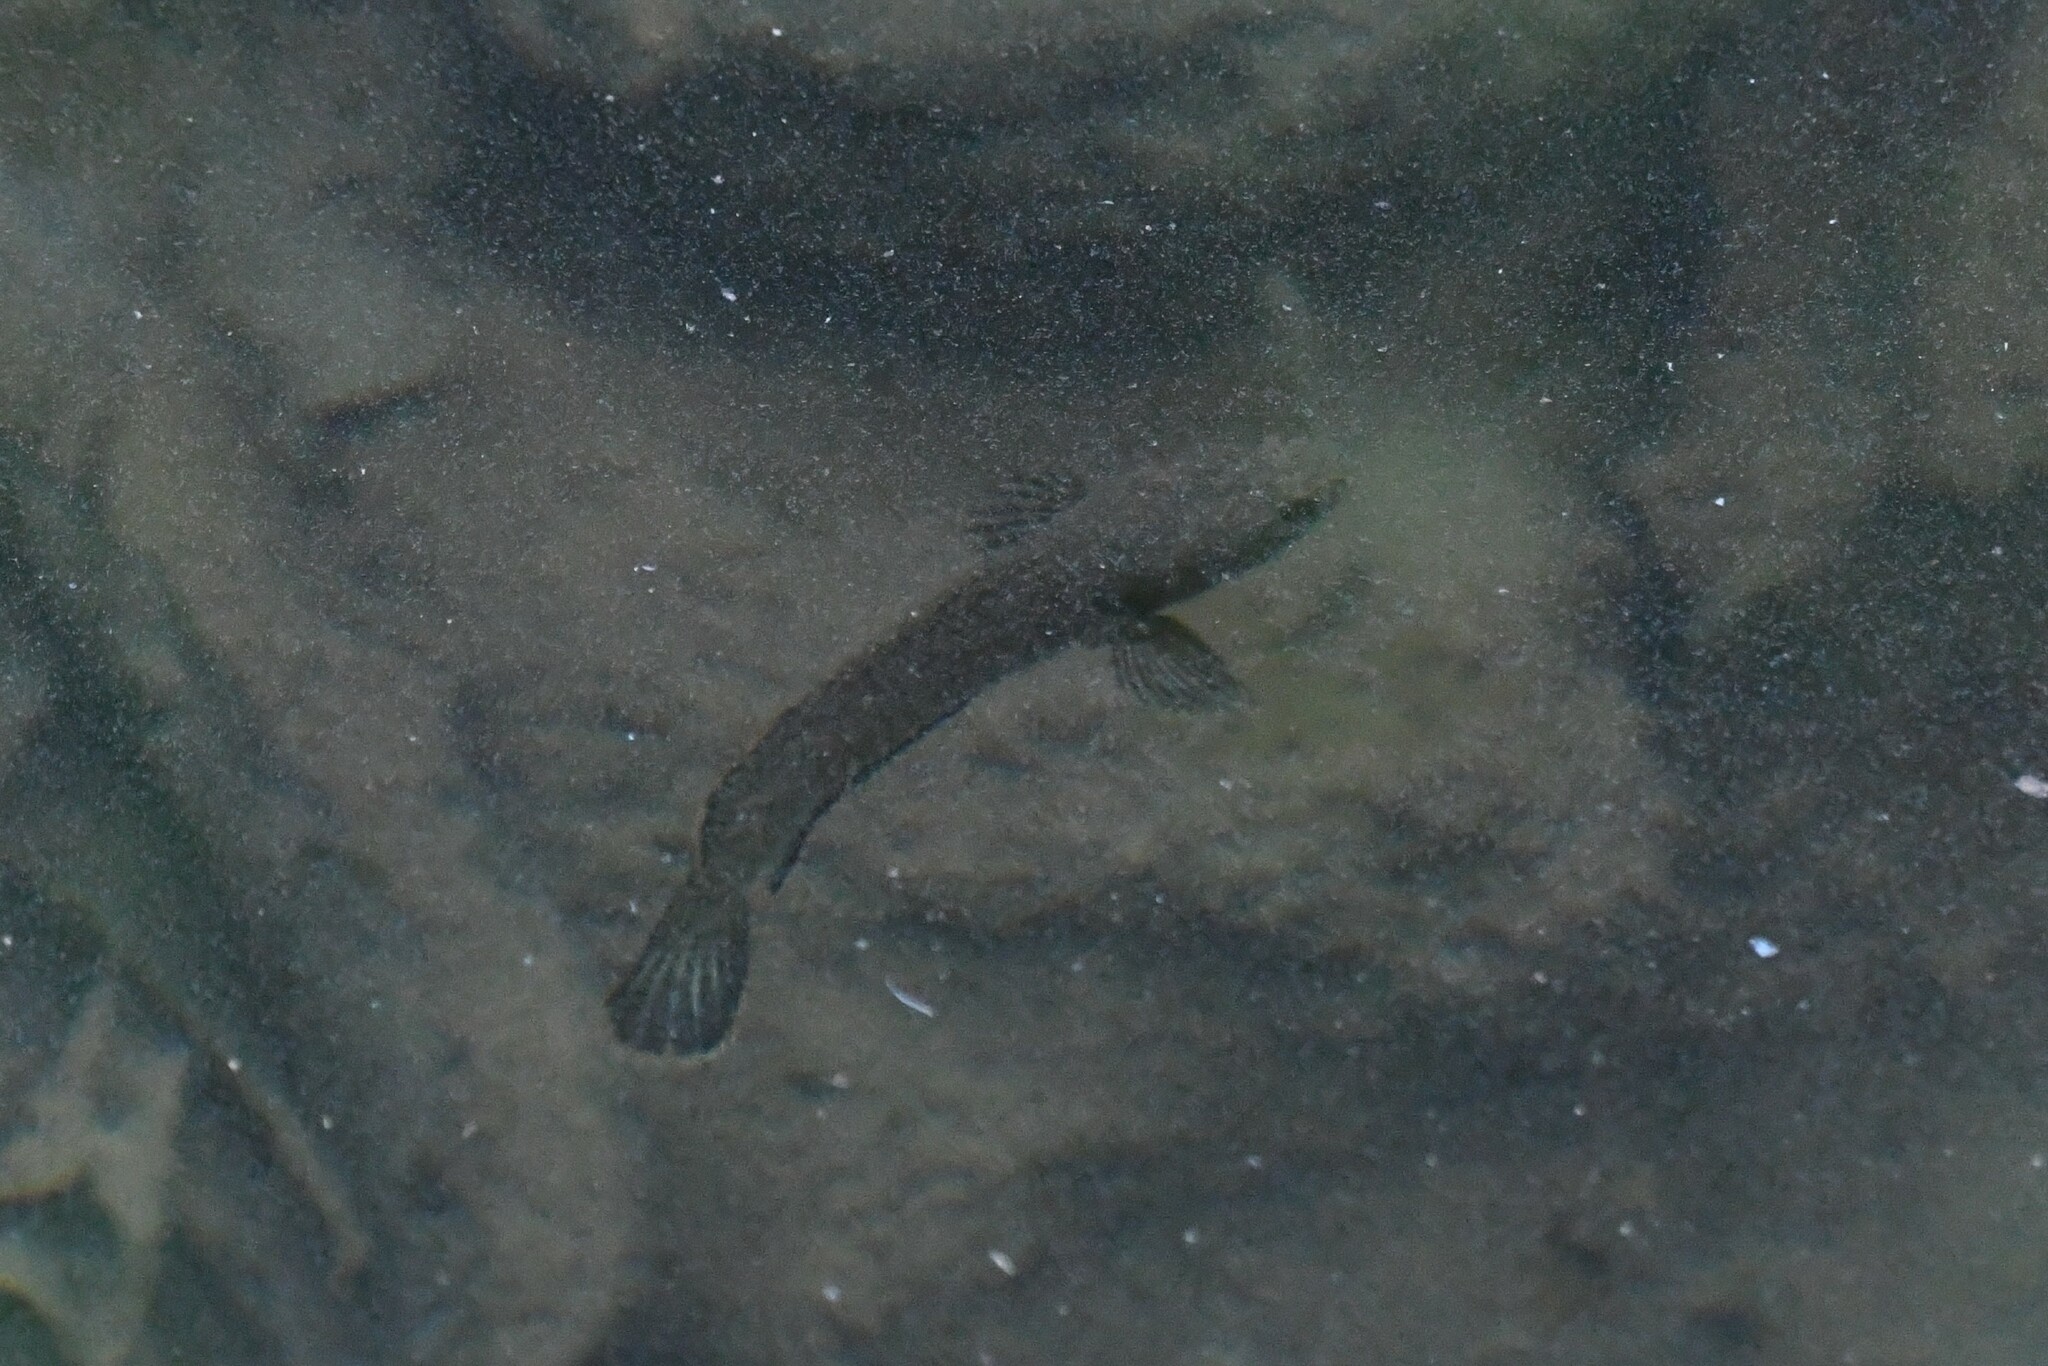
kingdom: Animalia
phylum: Chordata
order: Perciformes
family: Channidae
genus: Channa
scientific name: Channa gachua
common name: Dwarf snakehead
